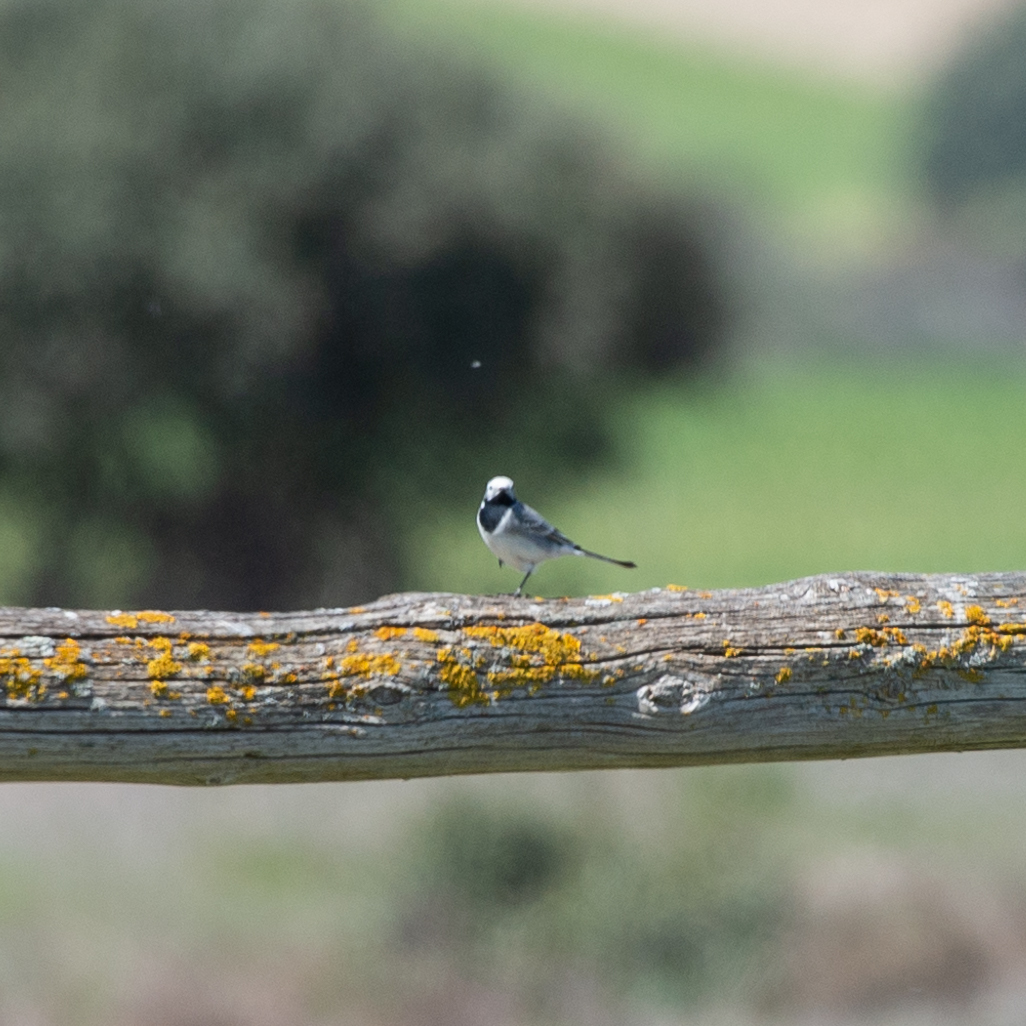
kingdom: Animalia
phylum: Chordata
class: Aves
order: Passeriformes
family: Motacillidae
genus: Motacilla
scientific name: Motacilla alba
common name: White wagtail
